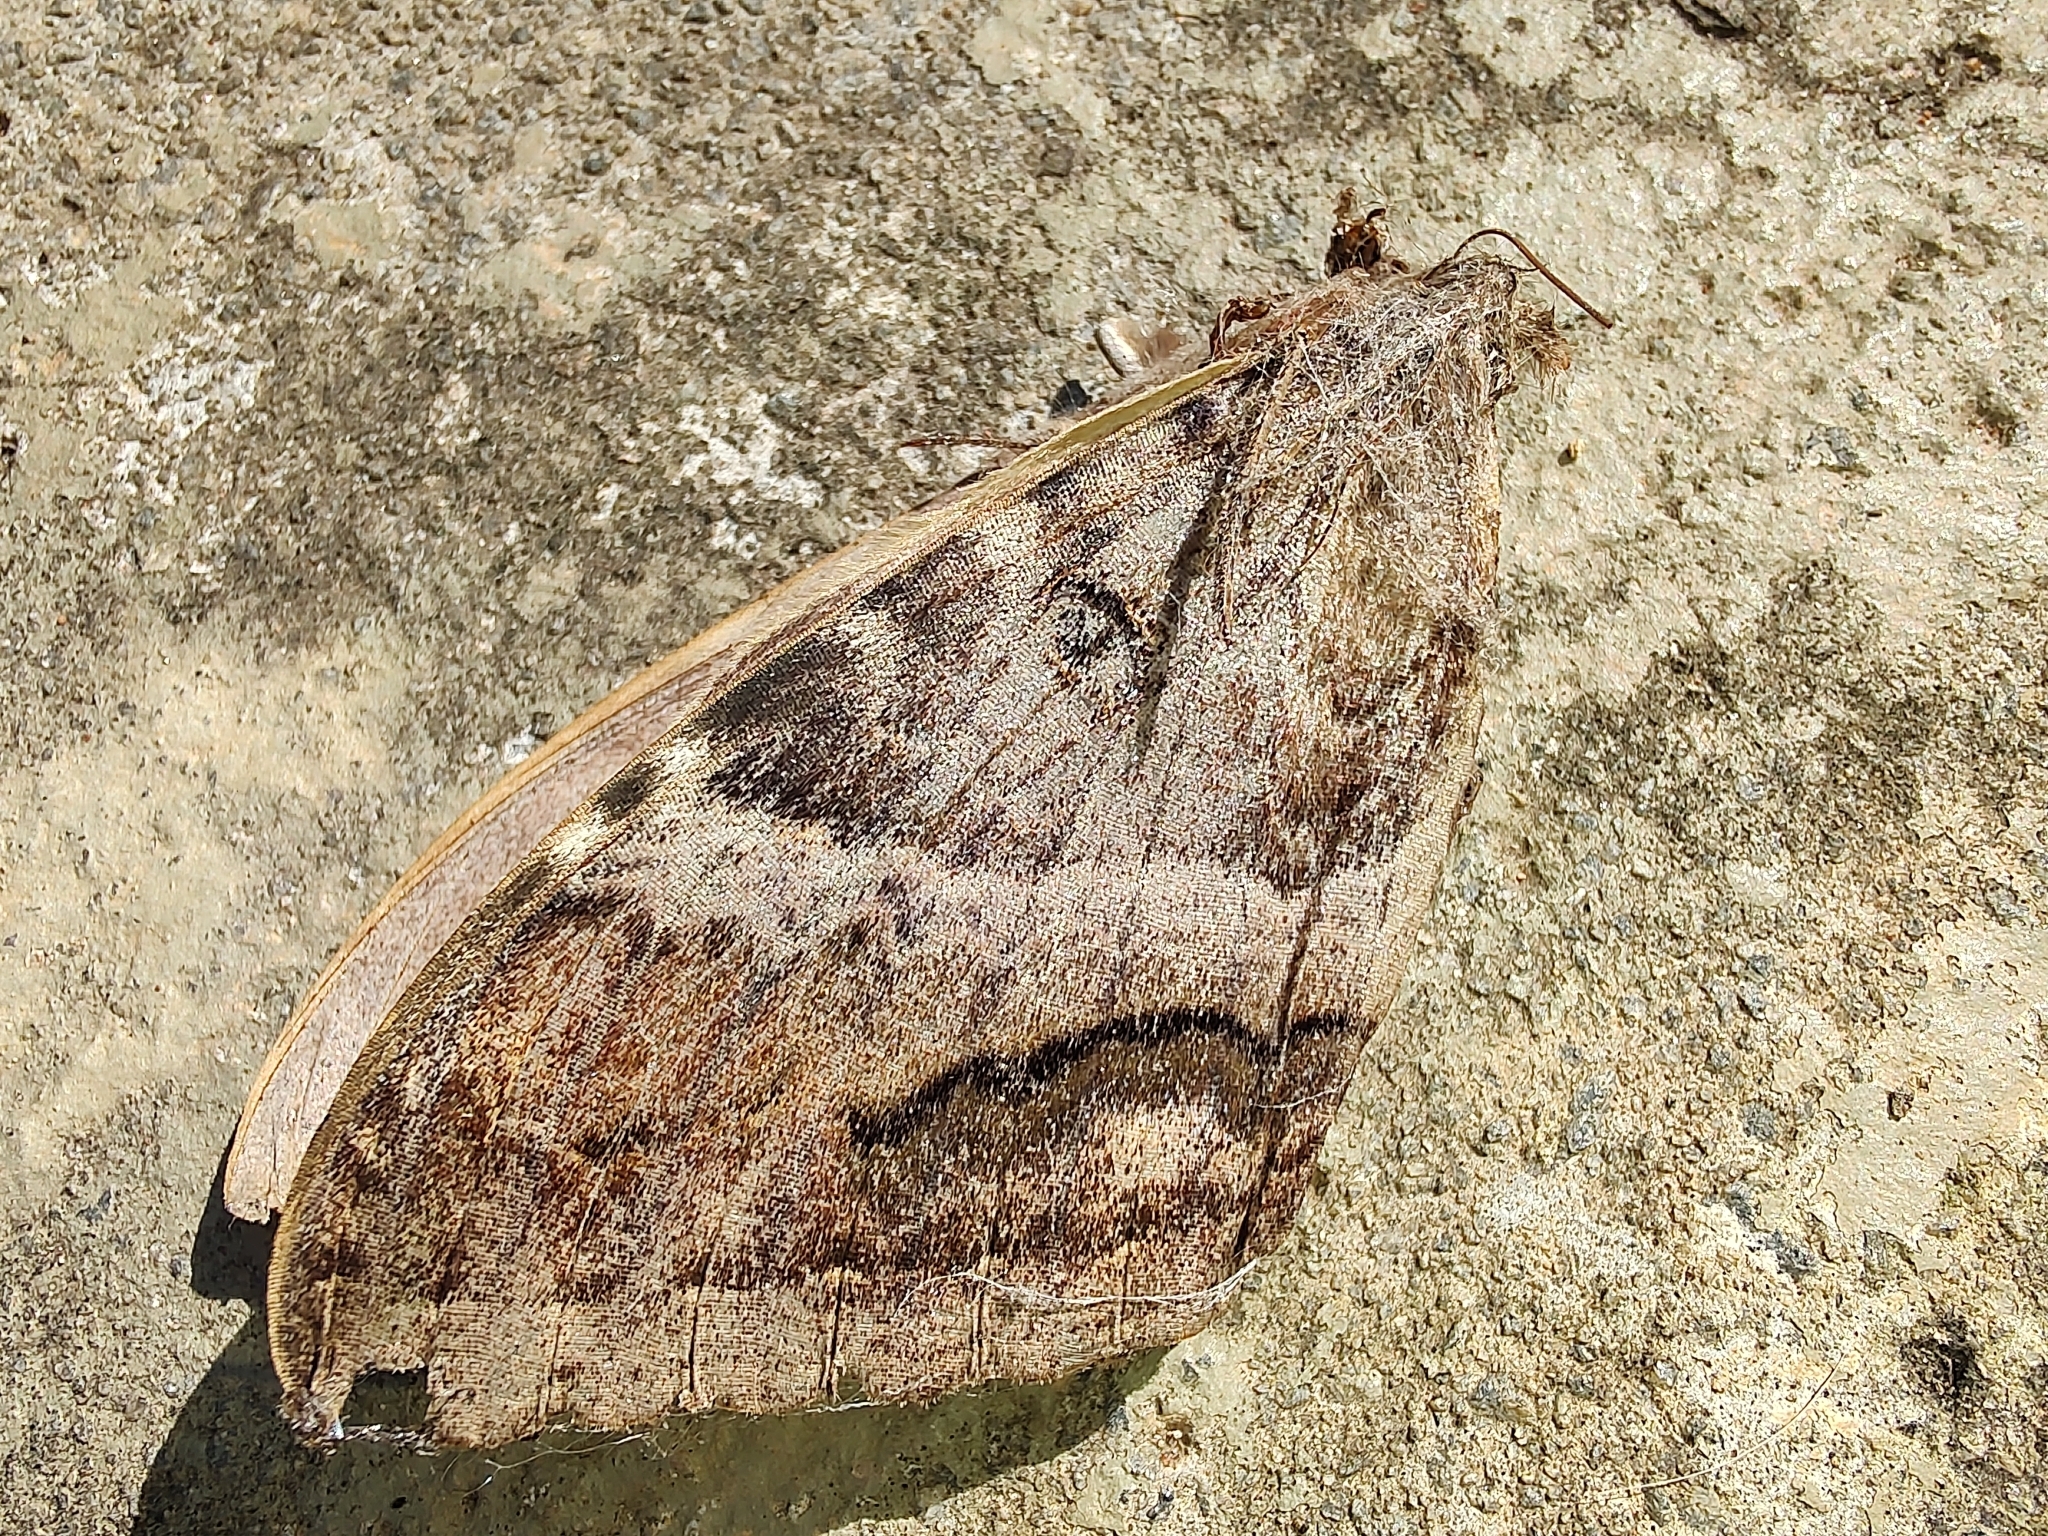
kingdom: Animalia
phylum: Arthropoda
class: Insecta
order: Lepidoptera
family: Erebidae
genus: Ascalapha
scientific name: Ascalapha odorata
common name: Black witch
